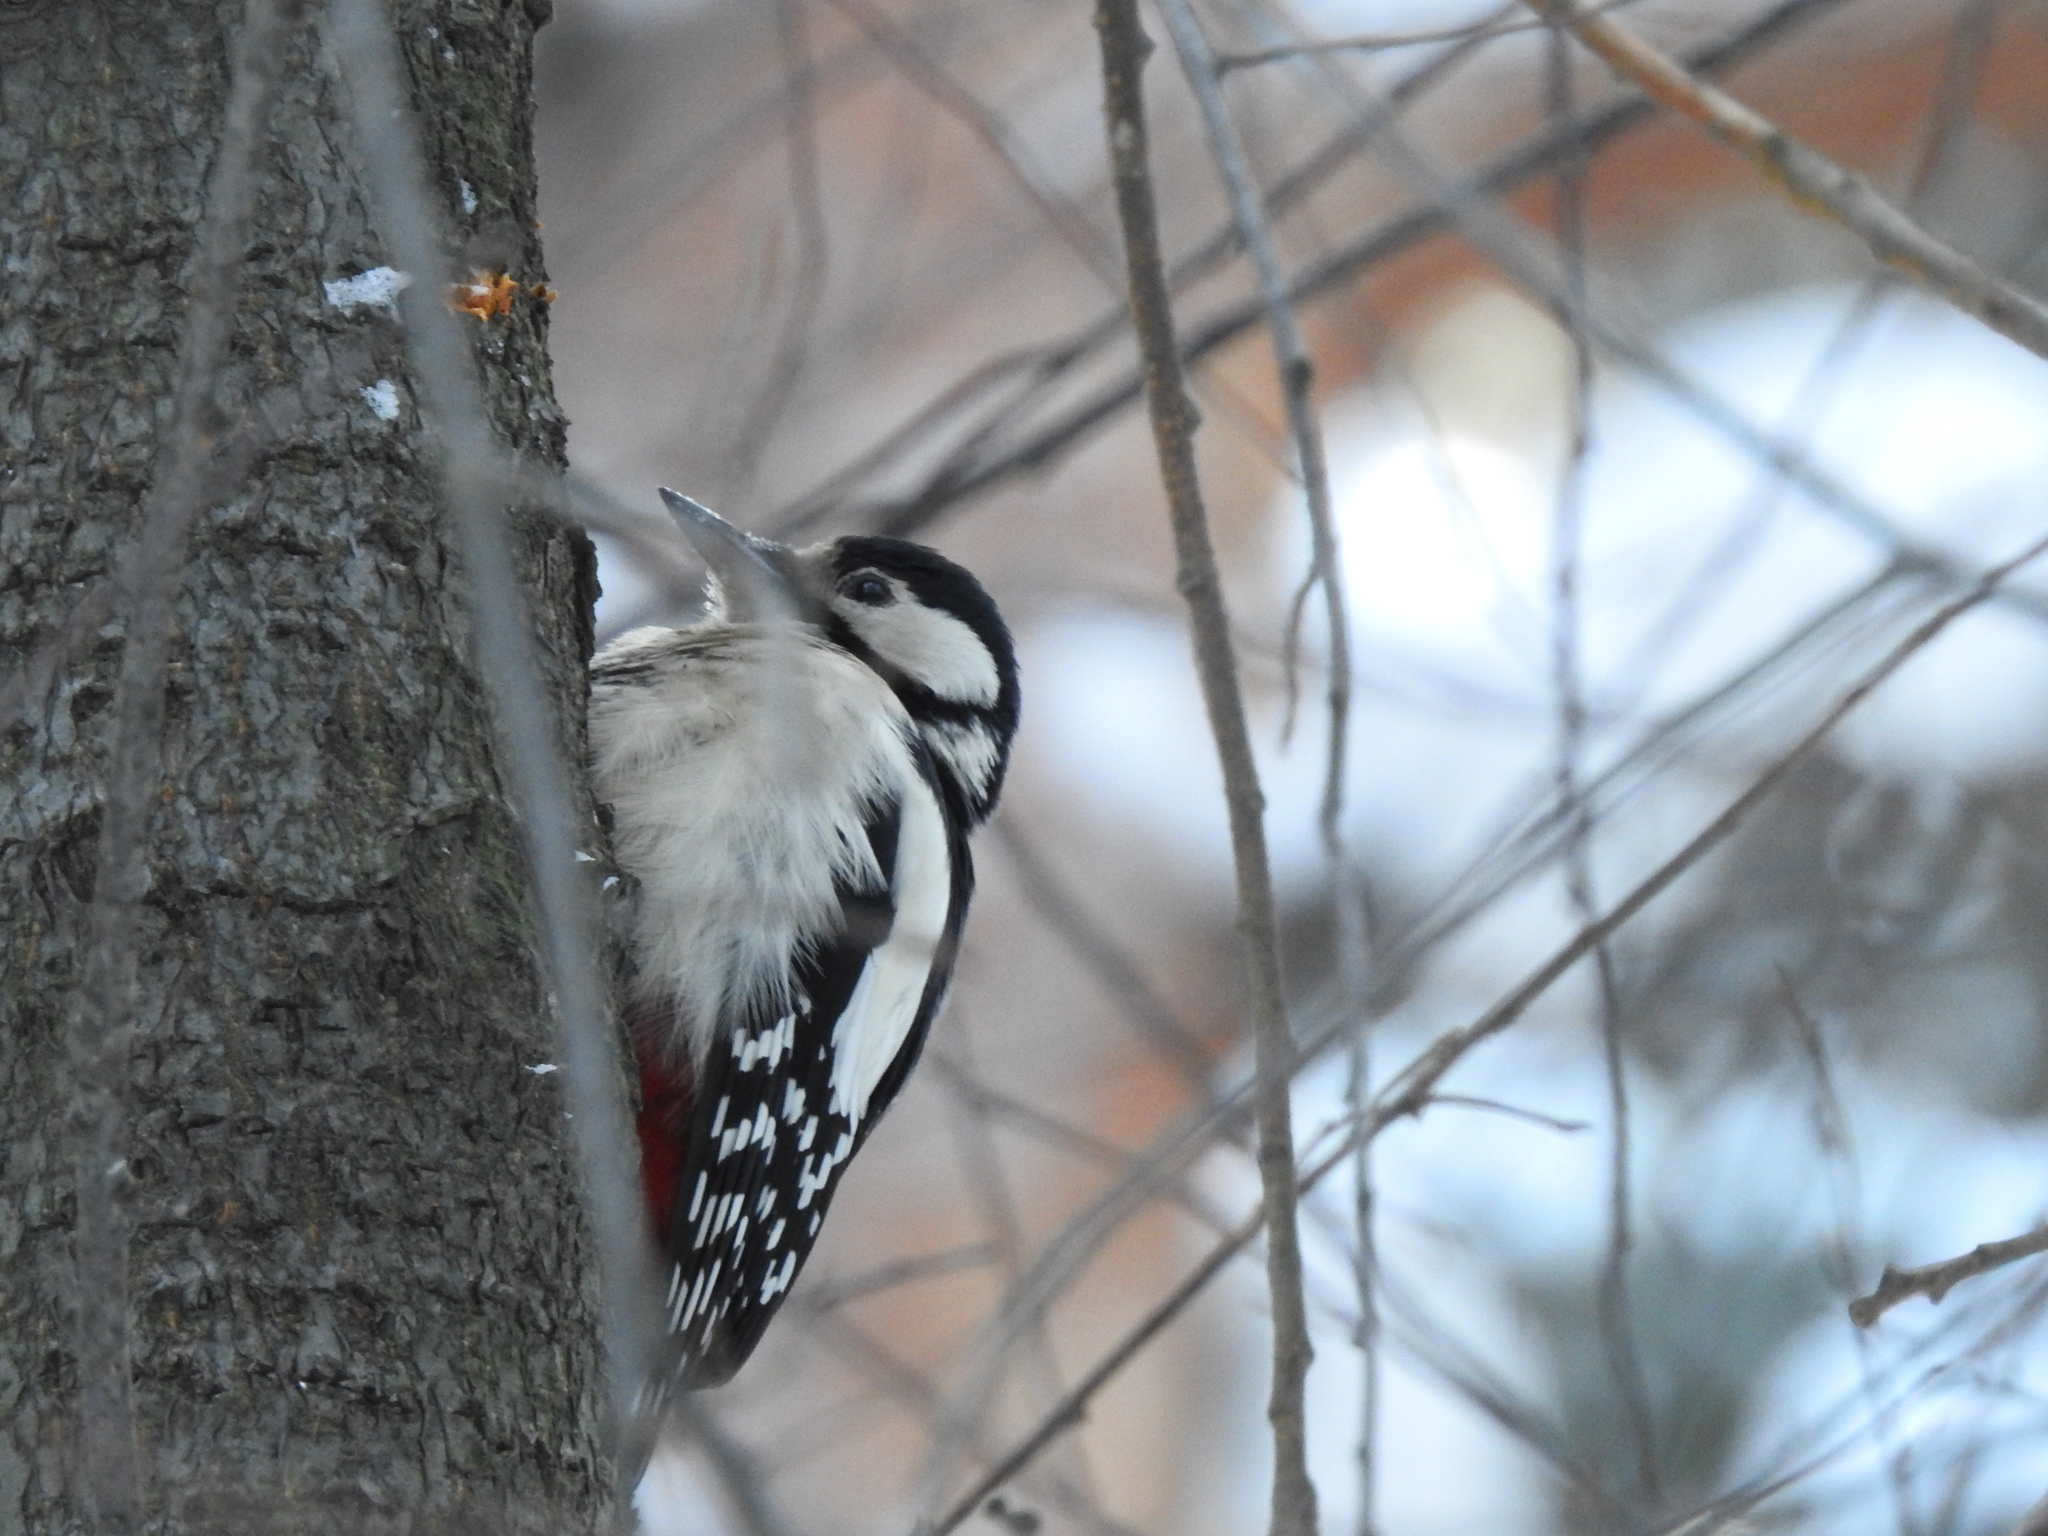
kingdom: Animalia
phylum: Chordata
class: Aves
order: Piciformes
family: Picidae
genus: Dendrocopos
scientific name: Dendrocopos major
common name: Great spotted woodpecker
